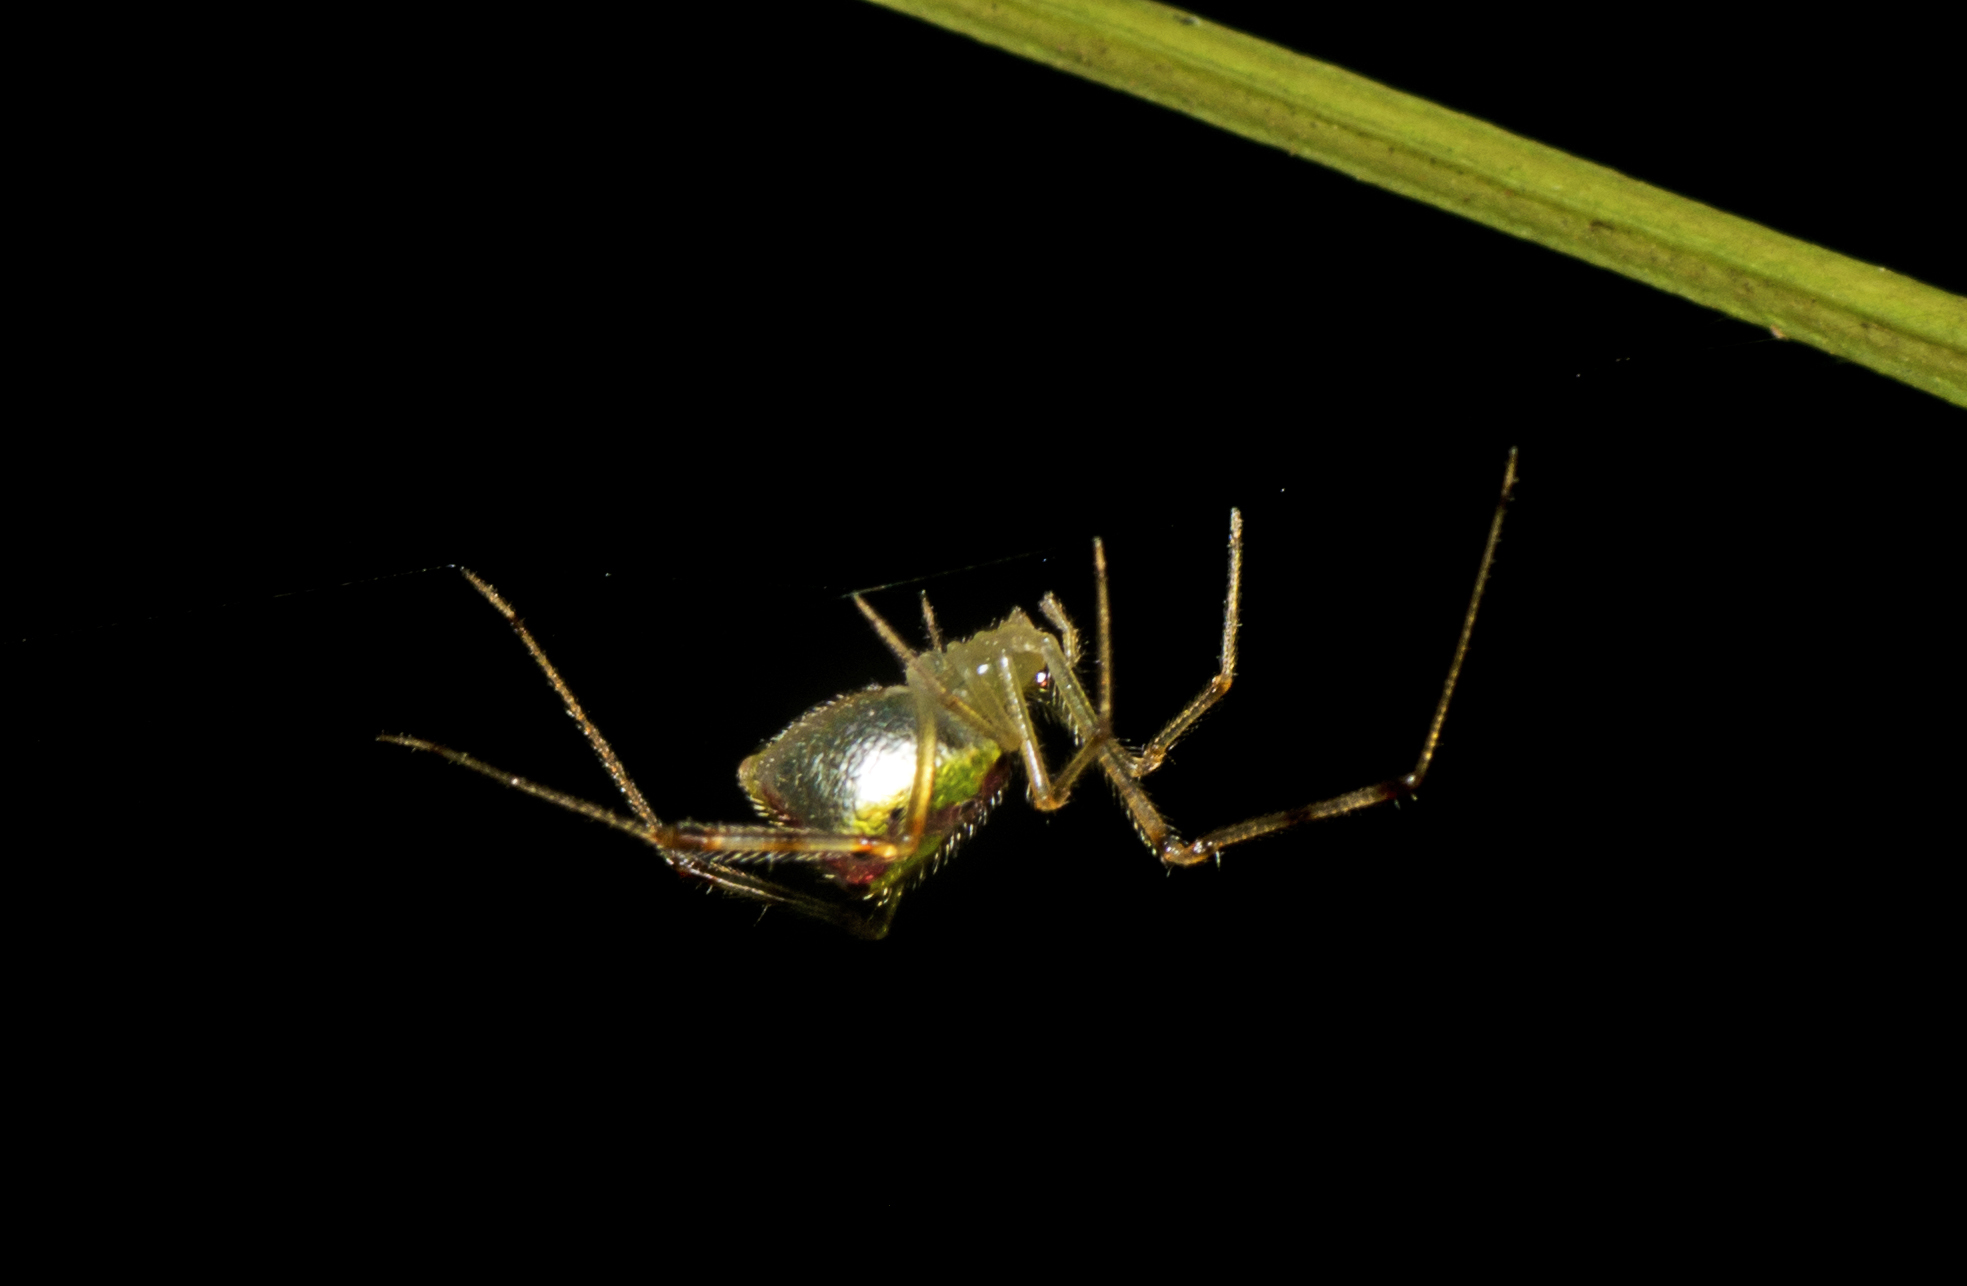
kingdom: Animalia
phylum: Arthropoda
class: Arachnida
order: Araneae
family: Theridiidae
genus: Thwaitesia
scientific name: Thwaitesia nigronodosa
